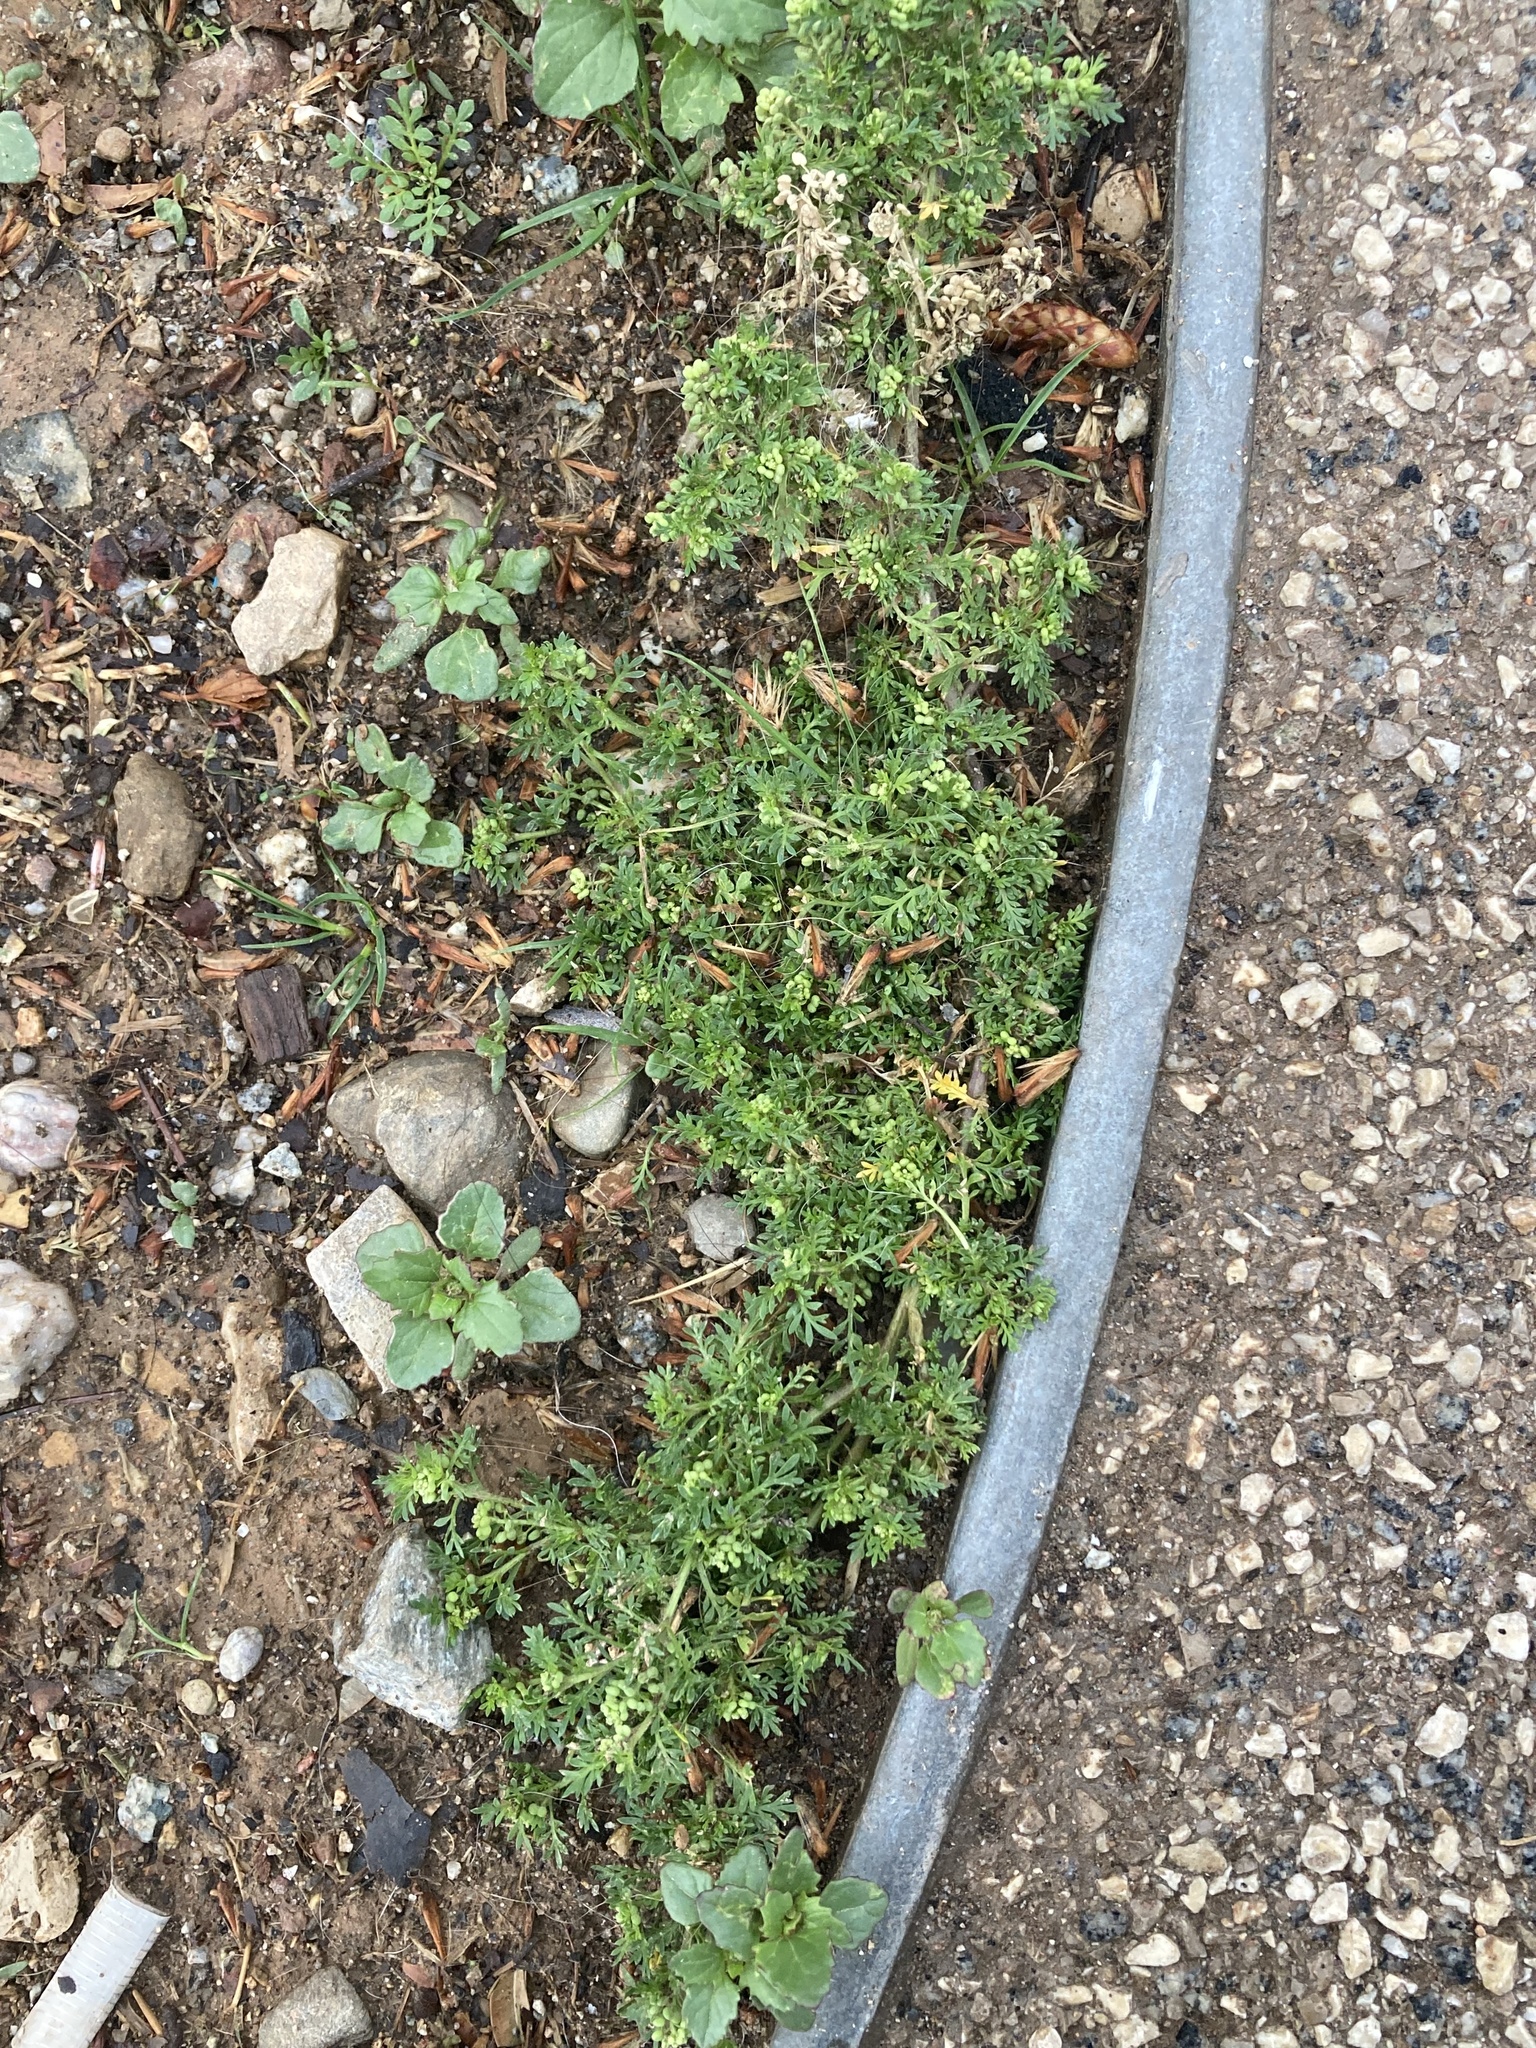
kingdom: Plantae
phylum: Tracheophyta
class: Magnoliopsida
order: Brassicales
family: Brassicaceae
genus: Lepidium
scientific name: Lepidium didymum
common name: Lesser swinecress
